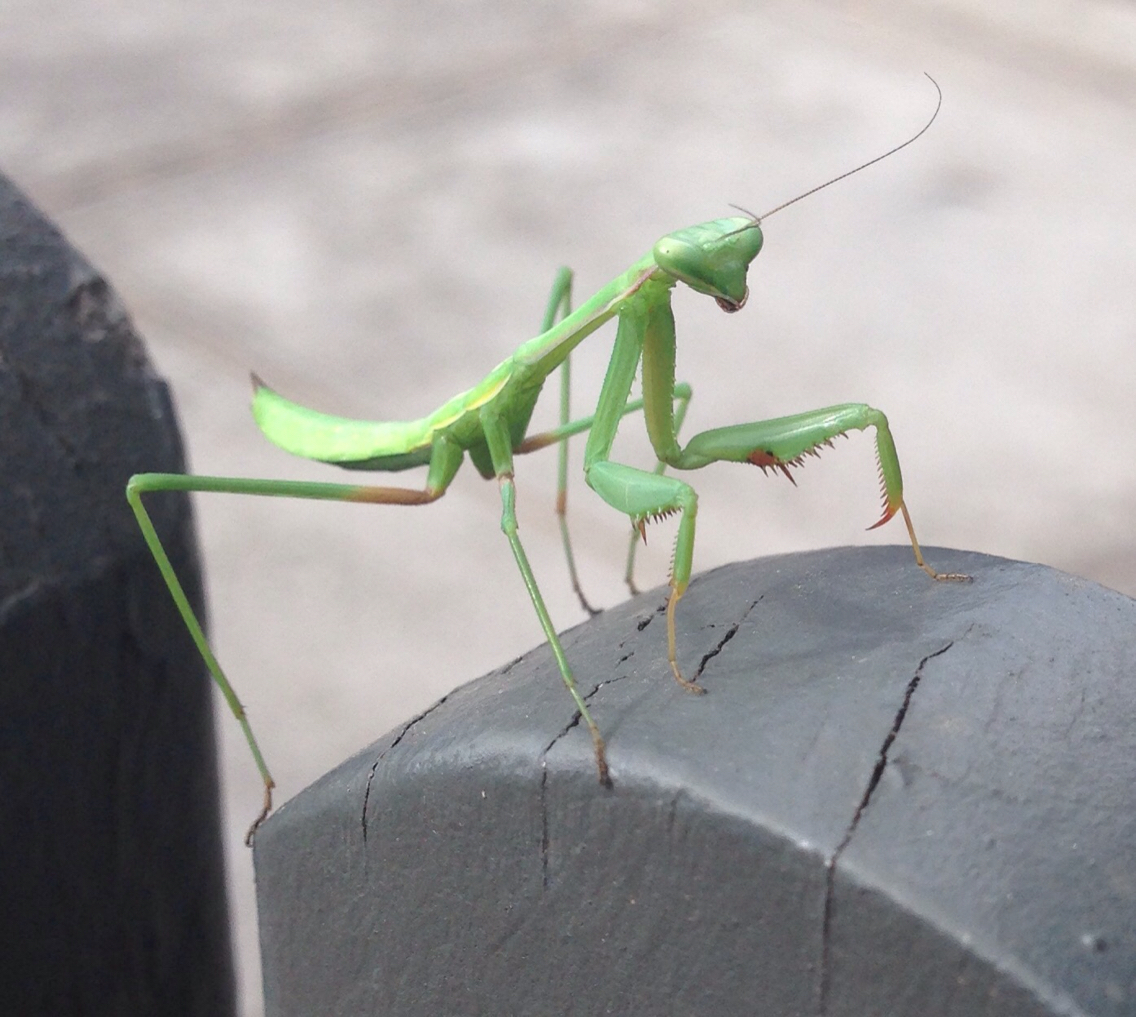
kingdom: Animalia
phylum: Arthropoda
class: Insecta
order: Mantodea
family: Mantidae
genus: Pseudomantis
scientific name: Pseudomantis albofimbriata
